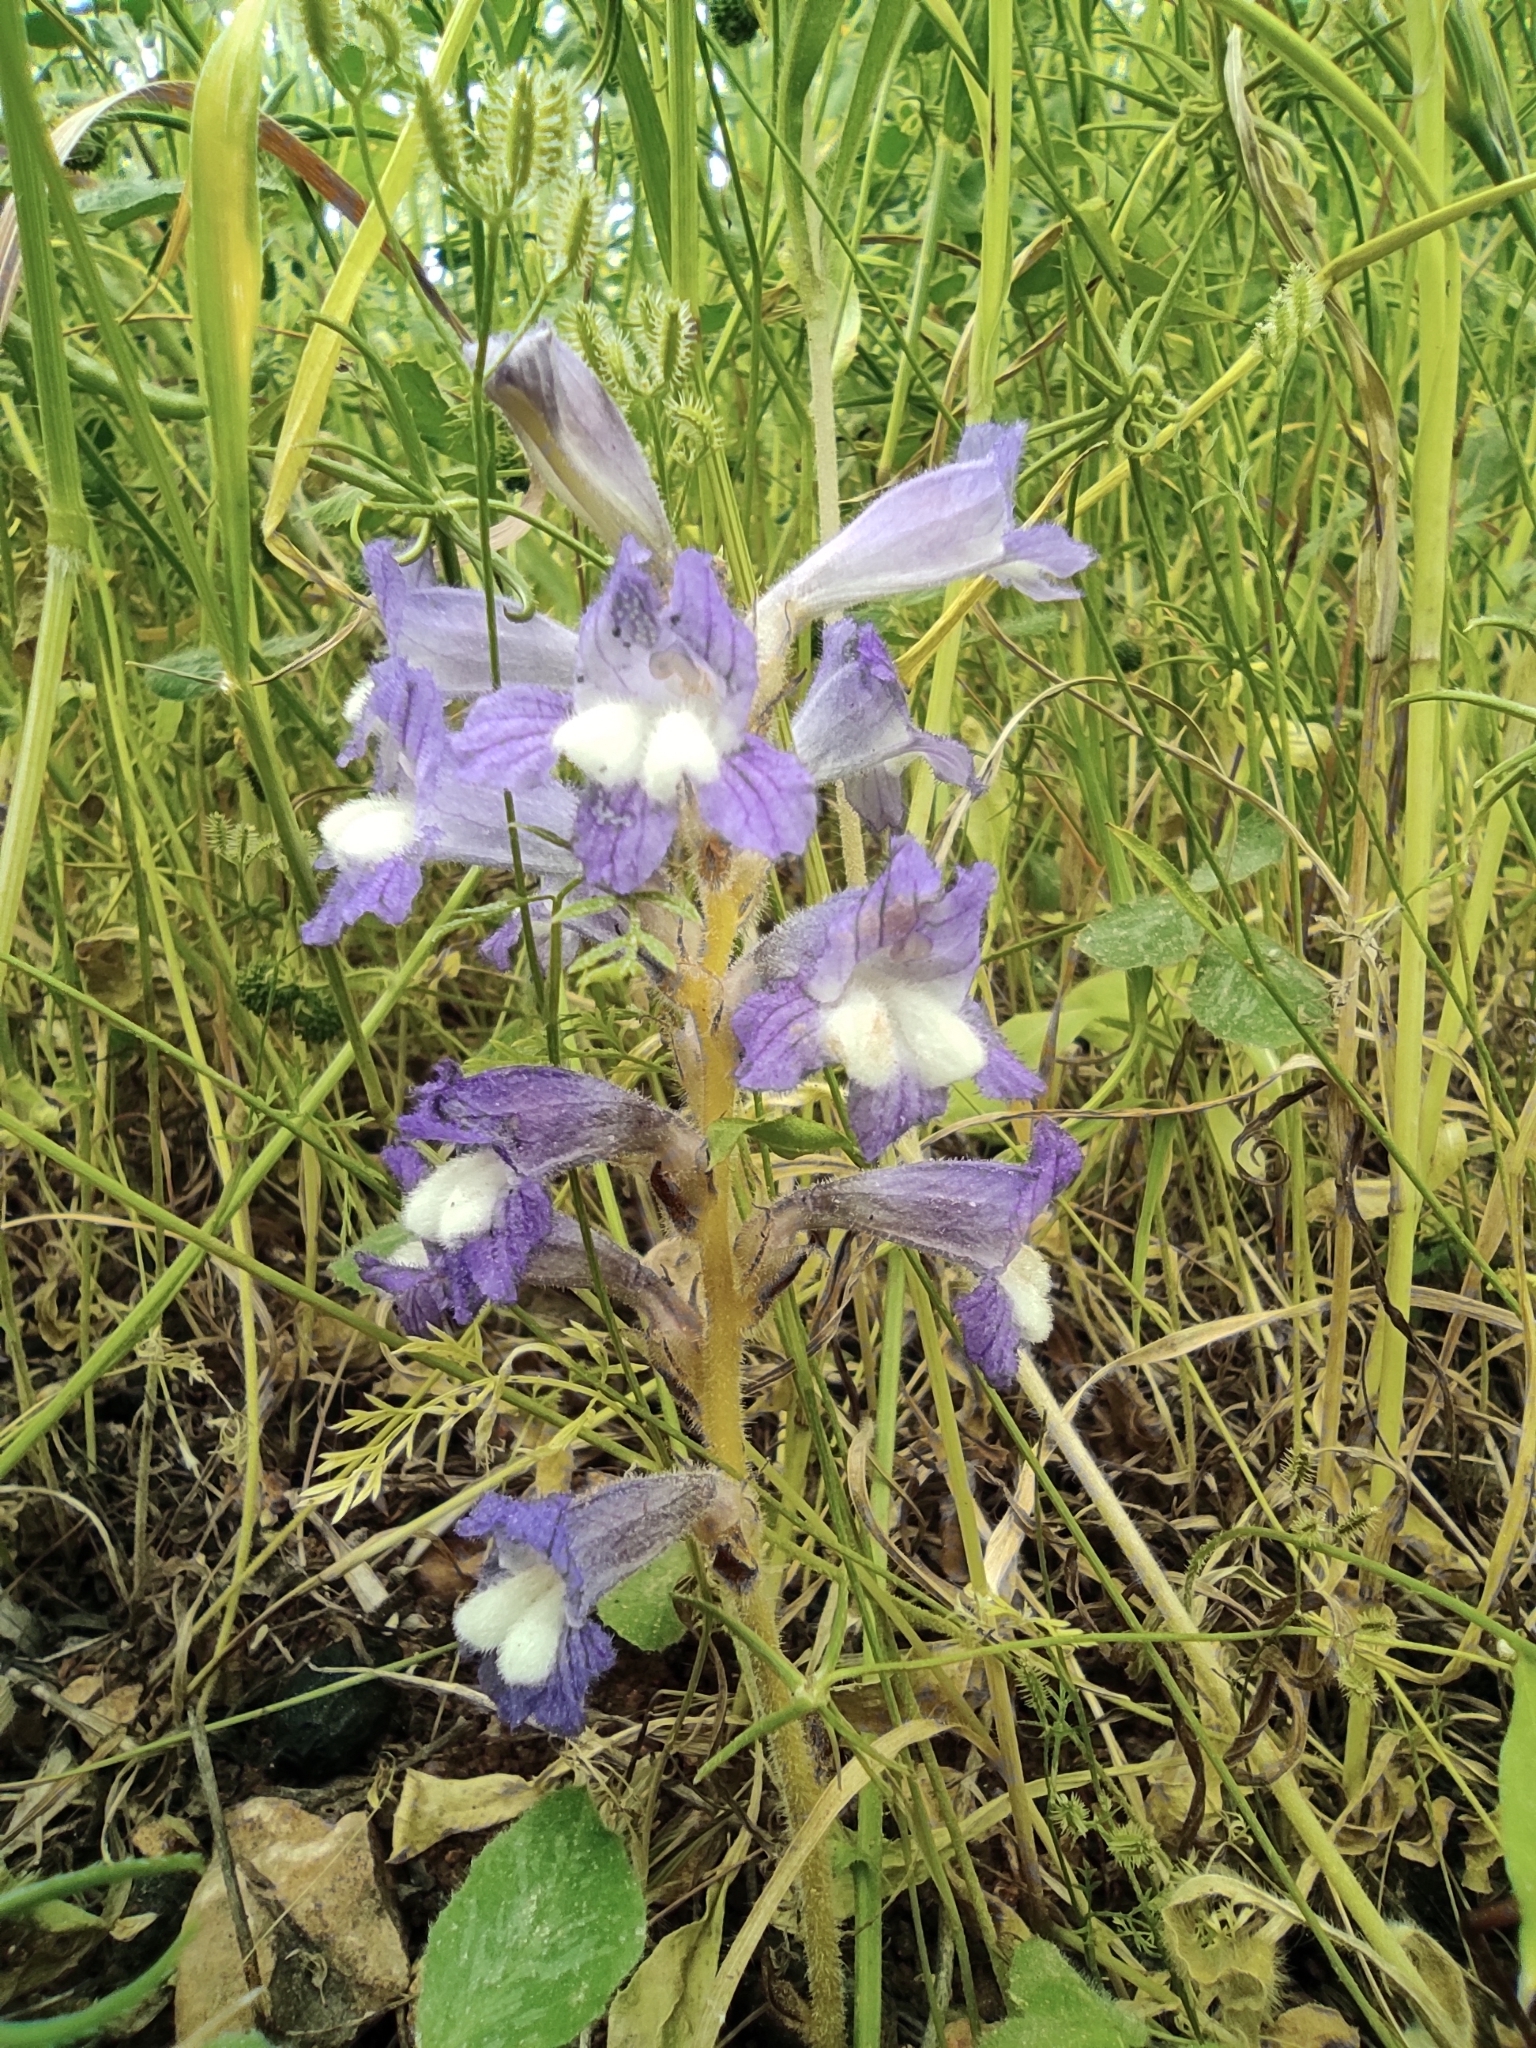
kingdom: Plantae
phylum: Tracheophyta
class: Magnoliopsida
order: Lamiales
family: Orobanchaceae
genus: Phelipanche
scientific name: Phelipanche aegyptiaca
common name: Egyptian broomrape
